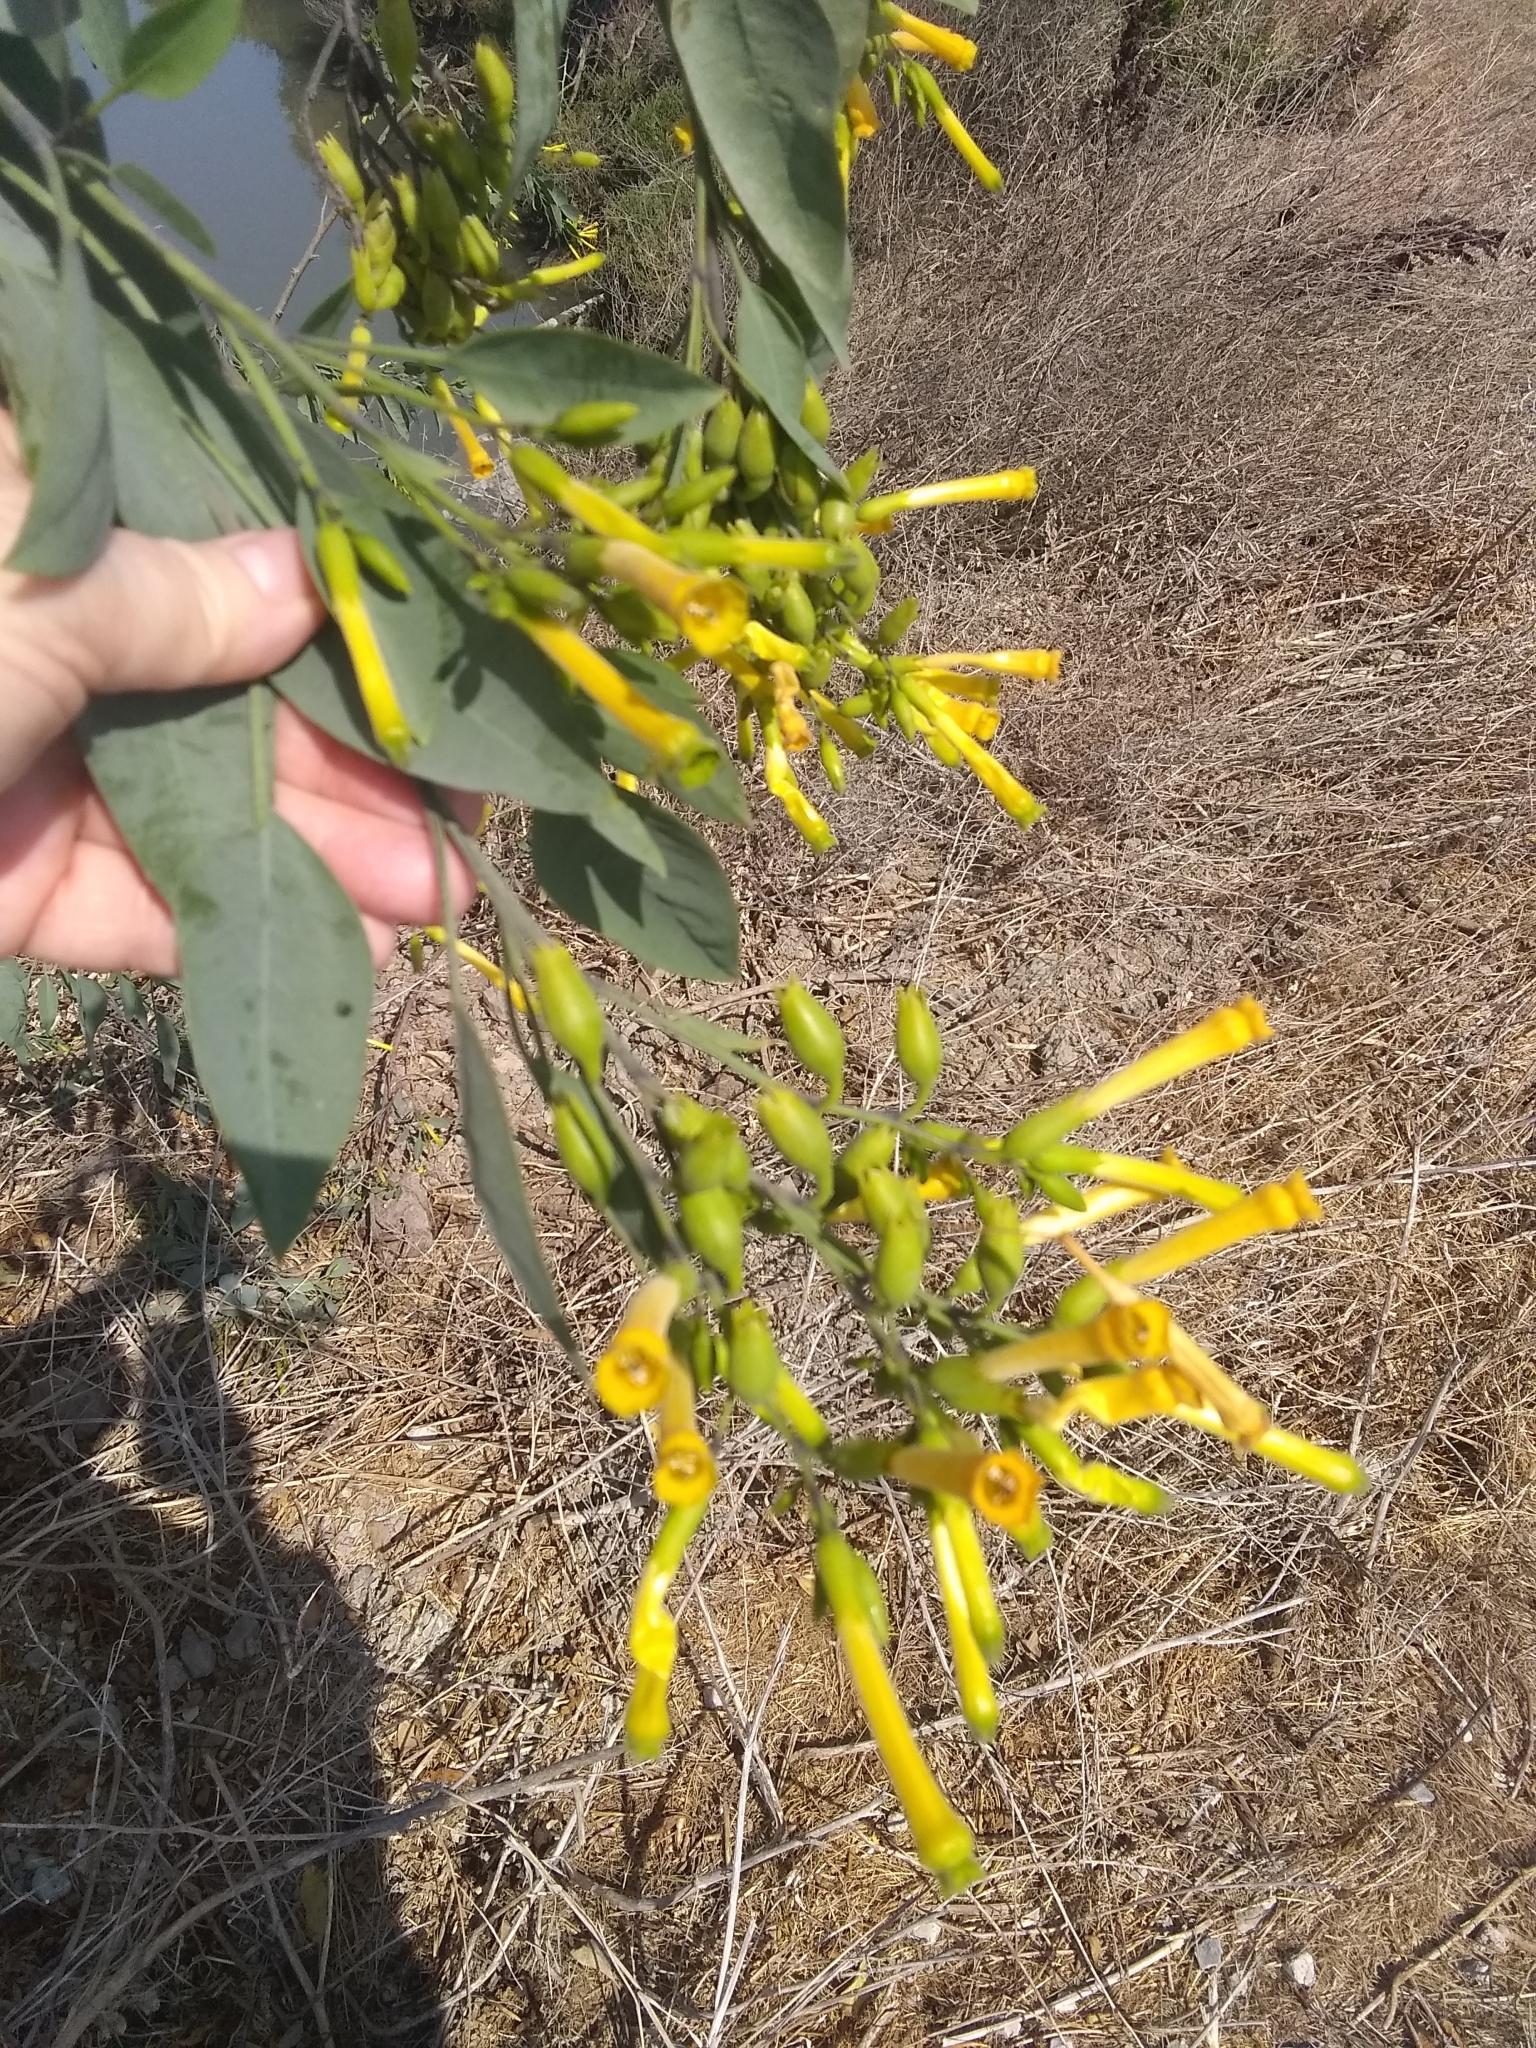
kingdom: Plantae
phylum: Tracheophyta
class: Magnoliopsida
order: Solanales
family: Solanaceae
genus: Nicotiana
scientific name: Nicotiana glauca
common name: Tree tobacco
